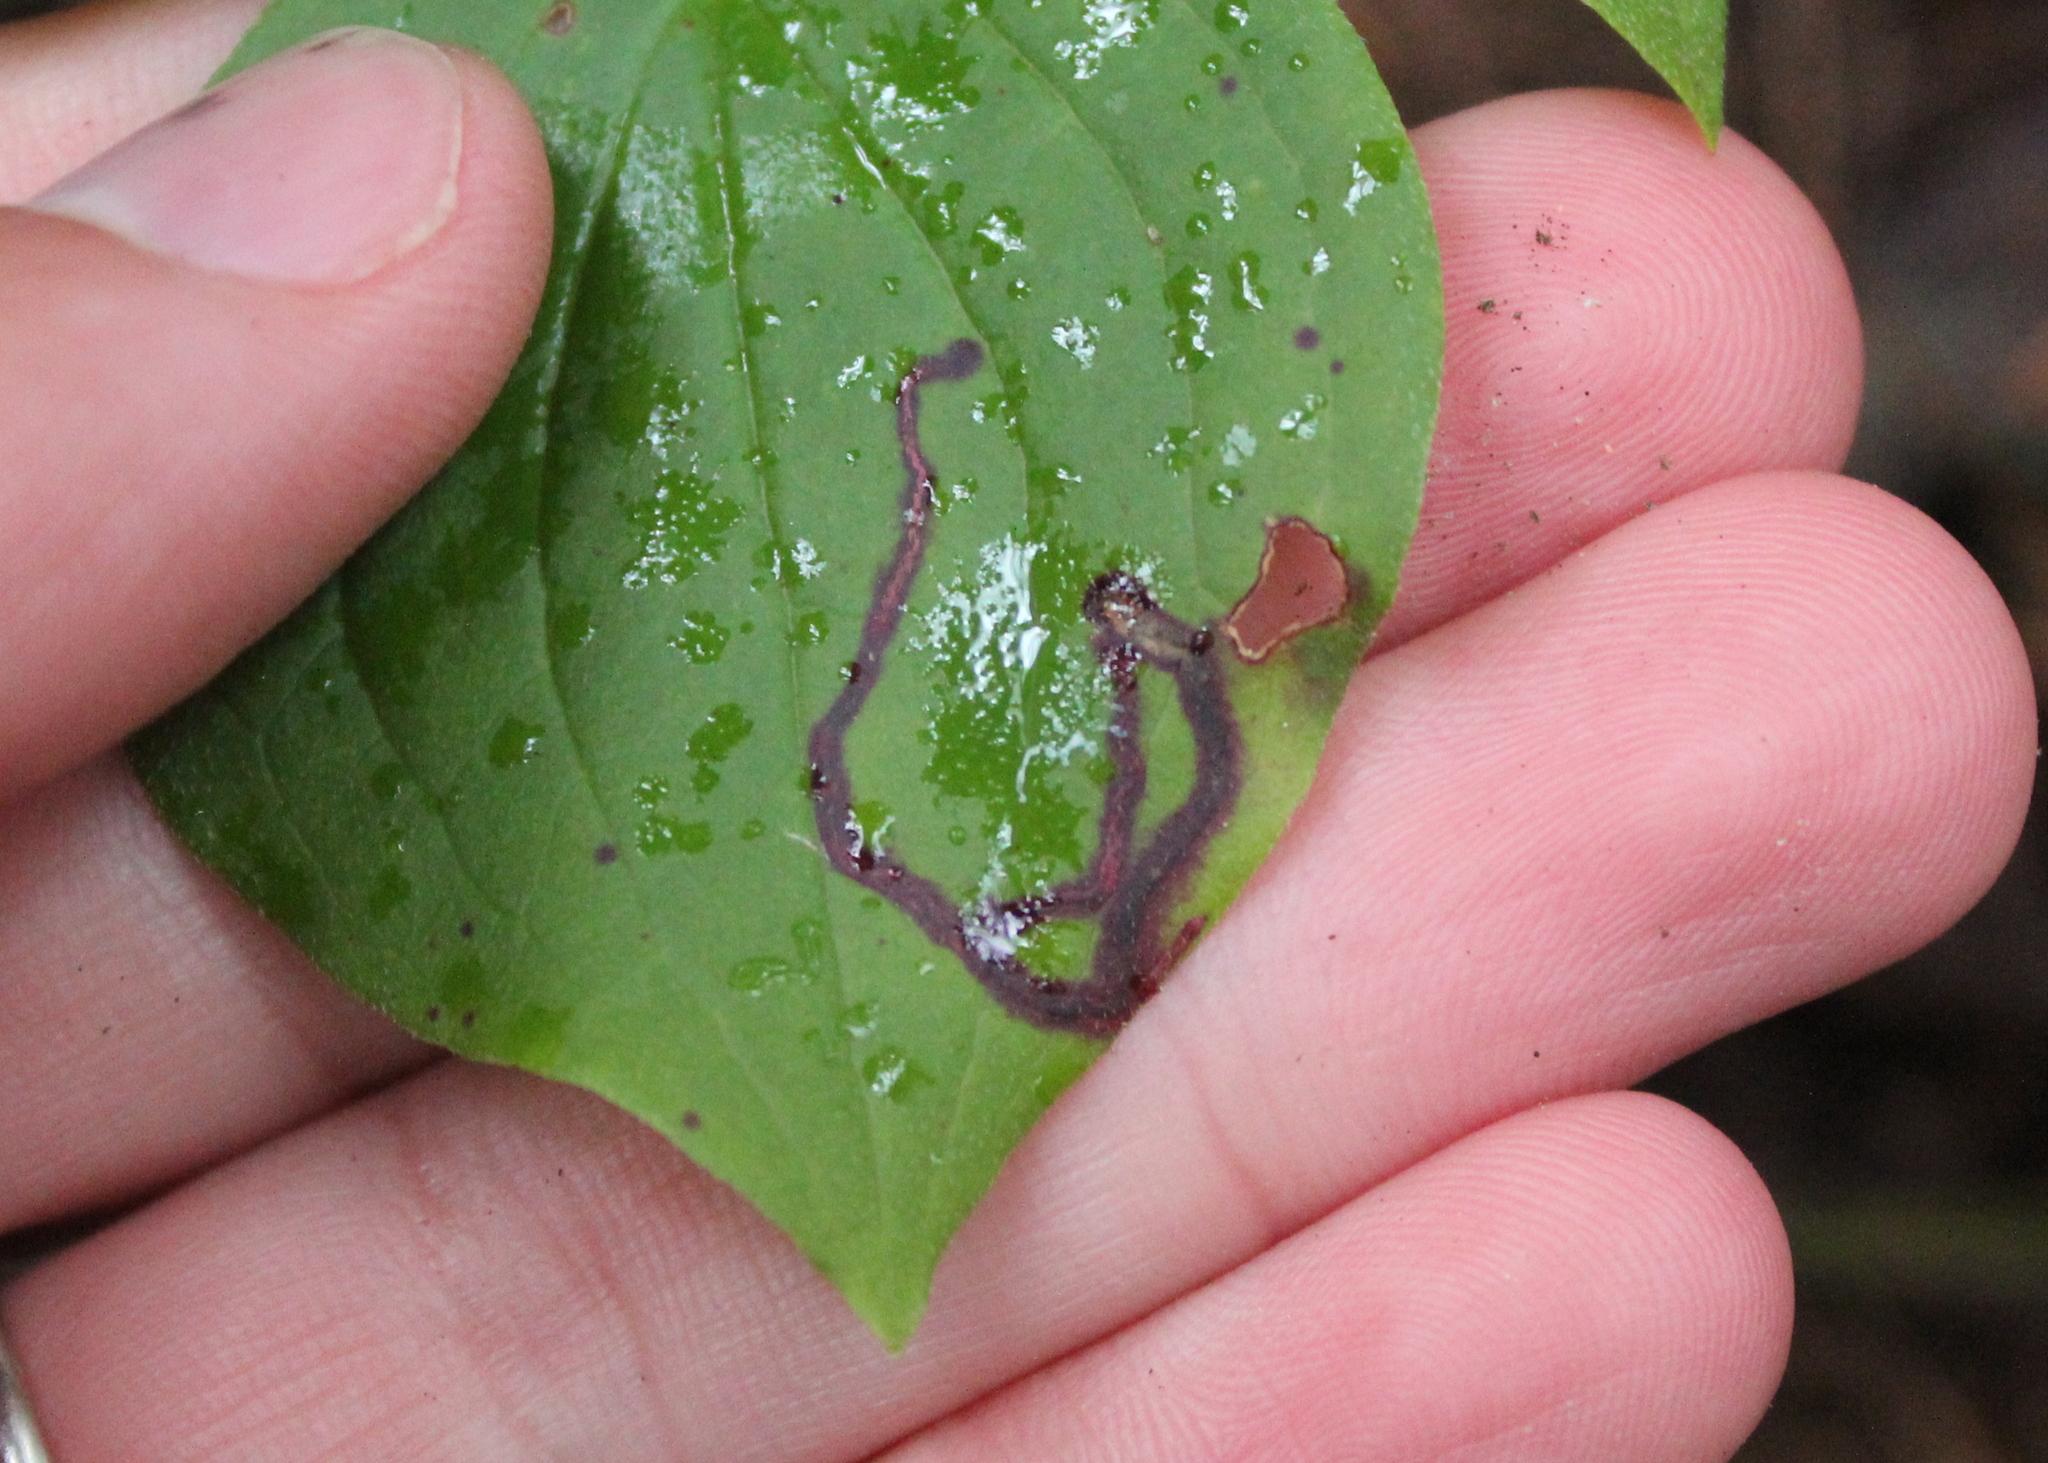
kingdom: Animalia
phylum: Arthropoda
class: Insecta
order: Diptera
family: Agromyzidae
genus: Phytomyza
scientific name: Phytomyza agromyzina
